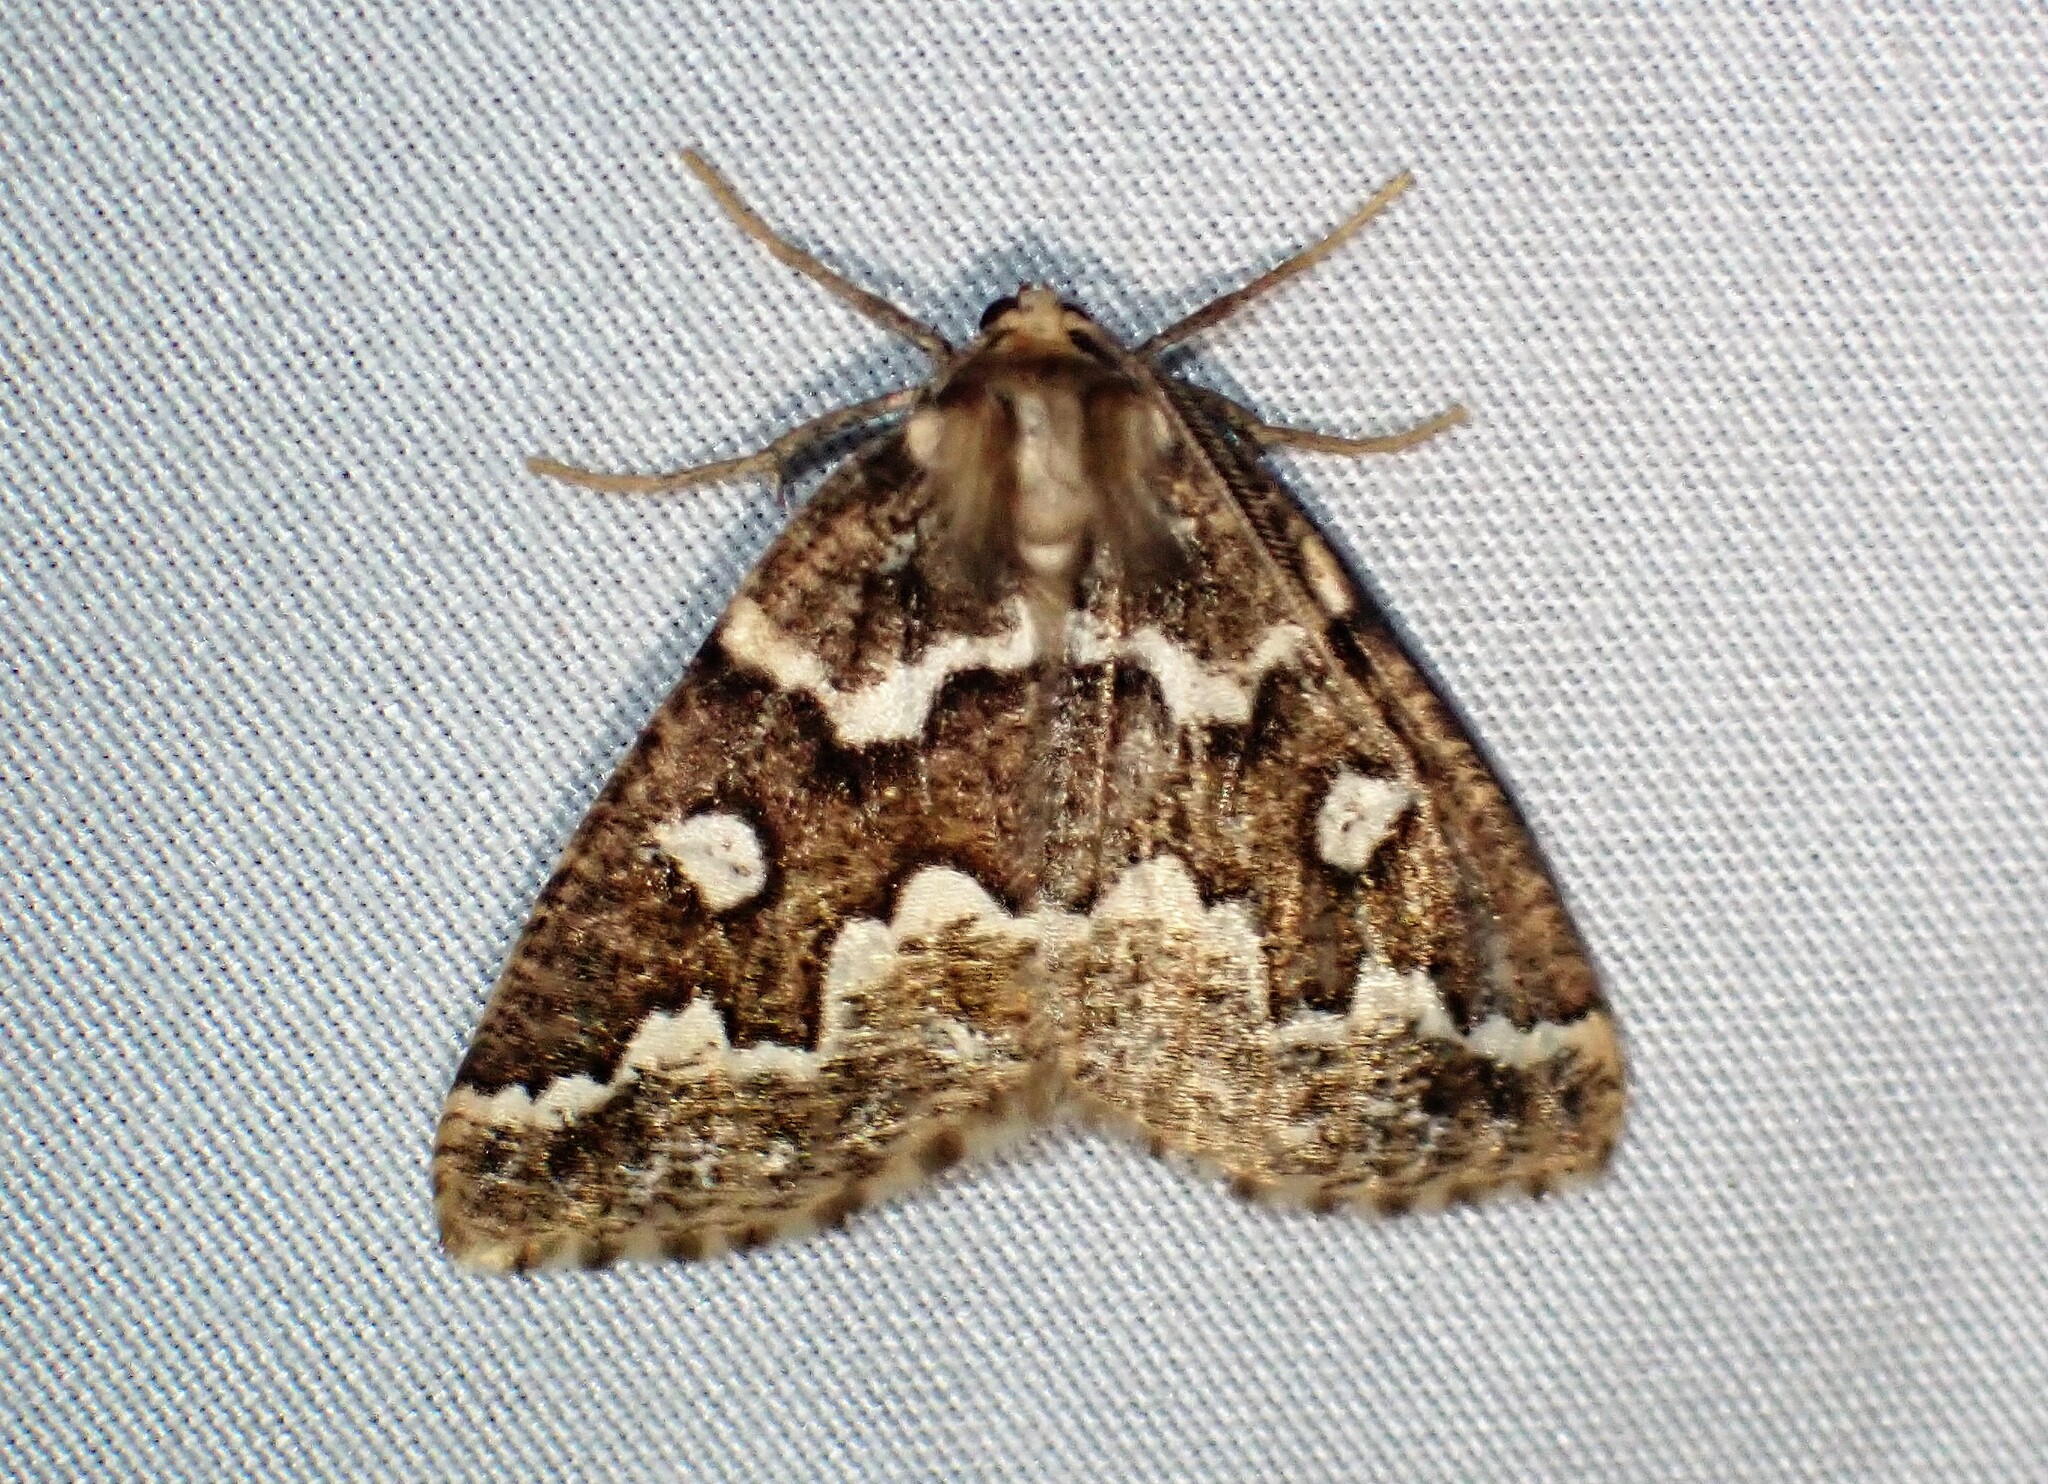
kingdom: Animalia
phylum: Arthropoda
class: Insecta
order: Lepidoptera
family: Geometridae
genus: Caripeta
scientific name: Caripeta divisata
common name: Gray spruce looper
